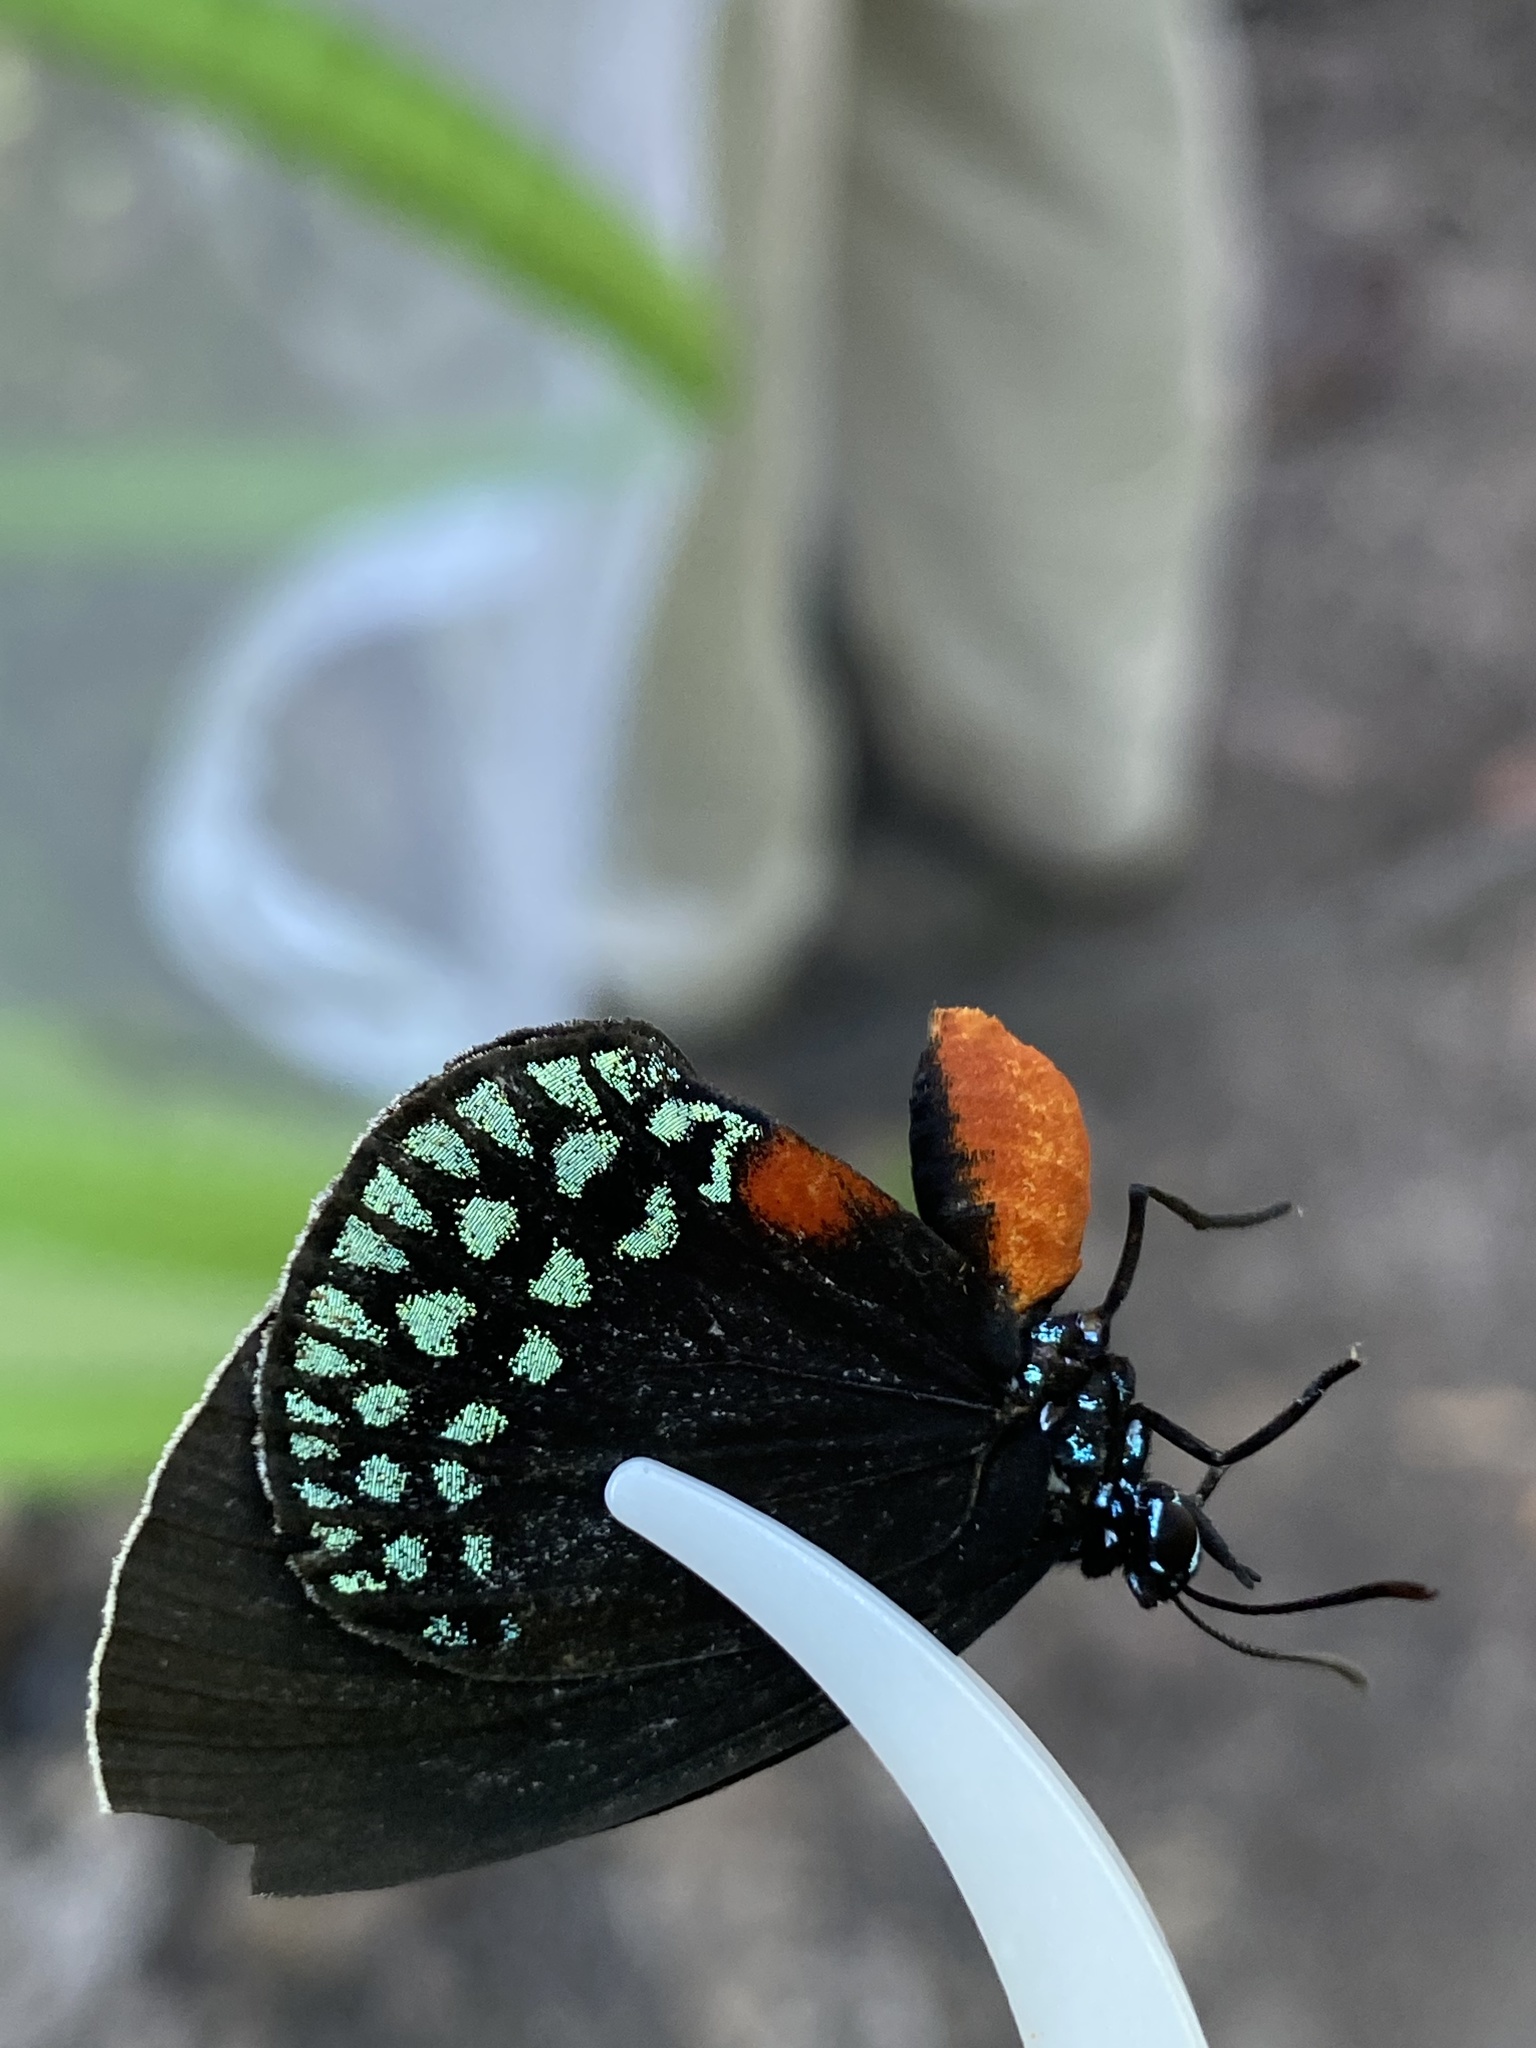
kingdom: Animalia
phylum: Arthropoda
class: Insecta
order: Lepidoptera
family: Lycaenidae
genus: Eumaeus
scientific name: Eumaeus toxea
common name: Mexican cycadian
